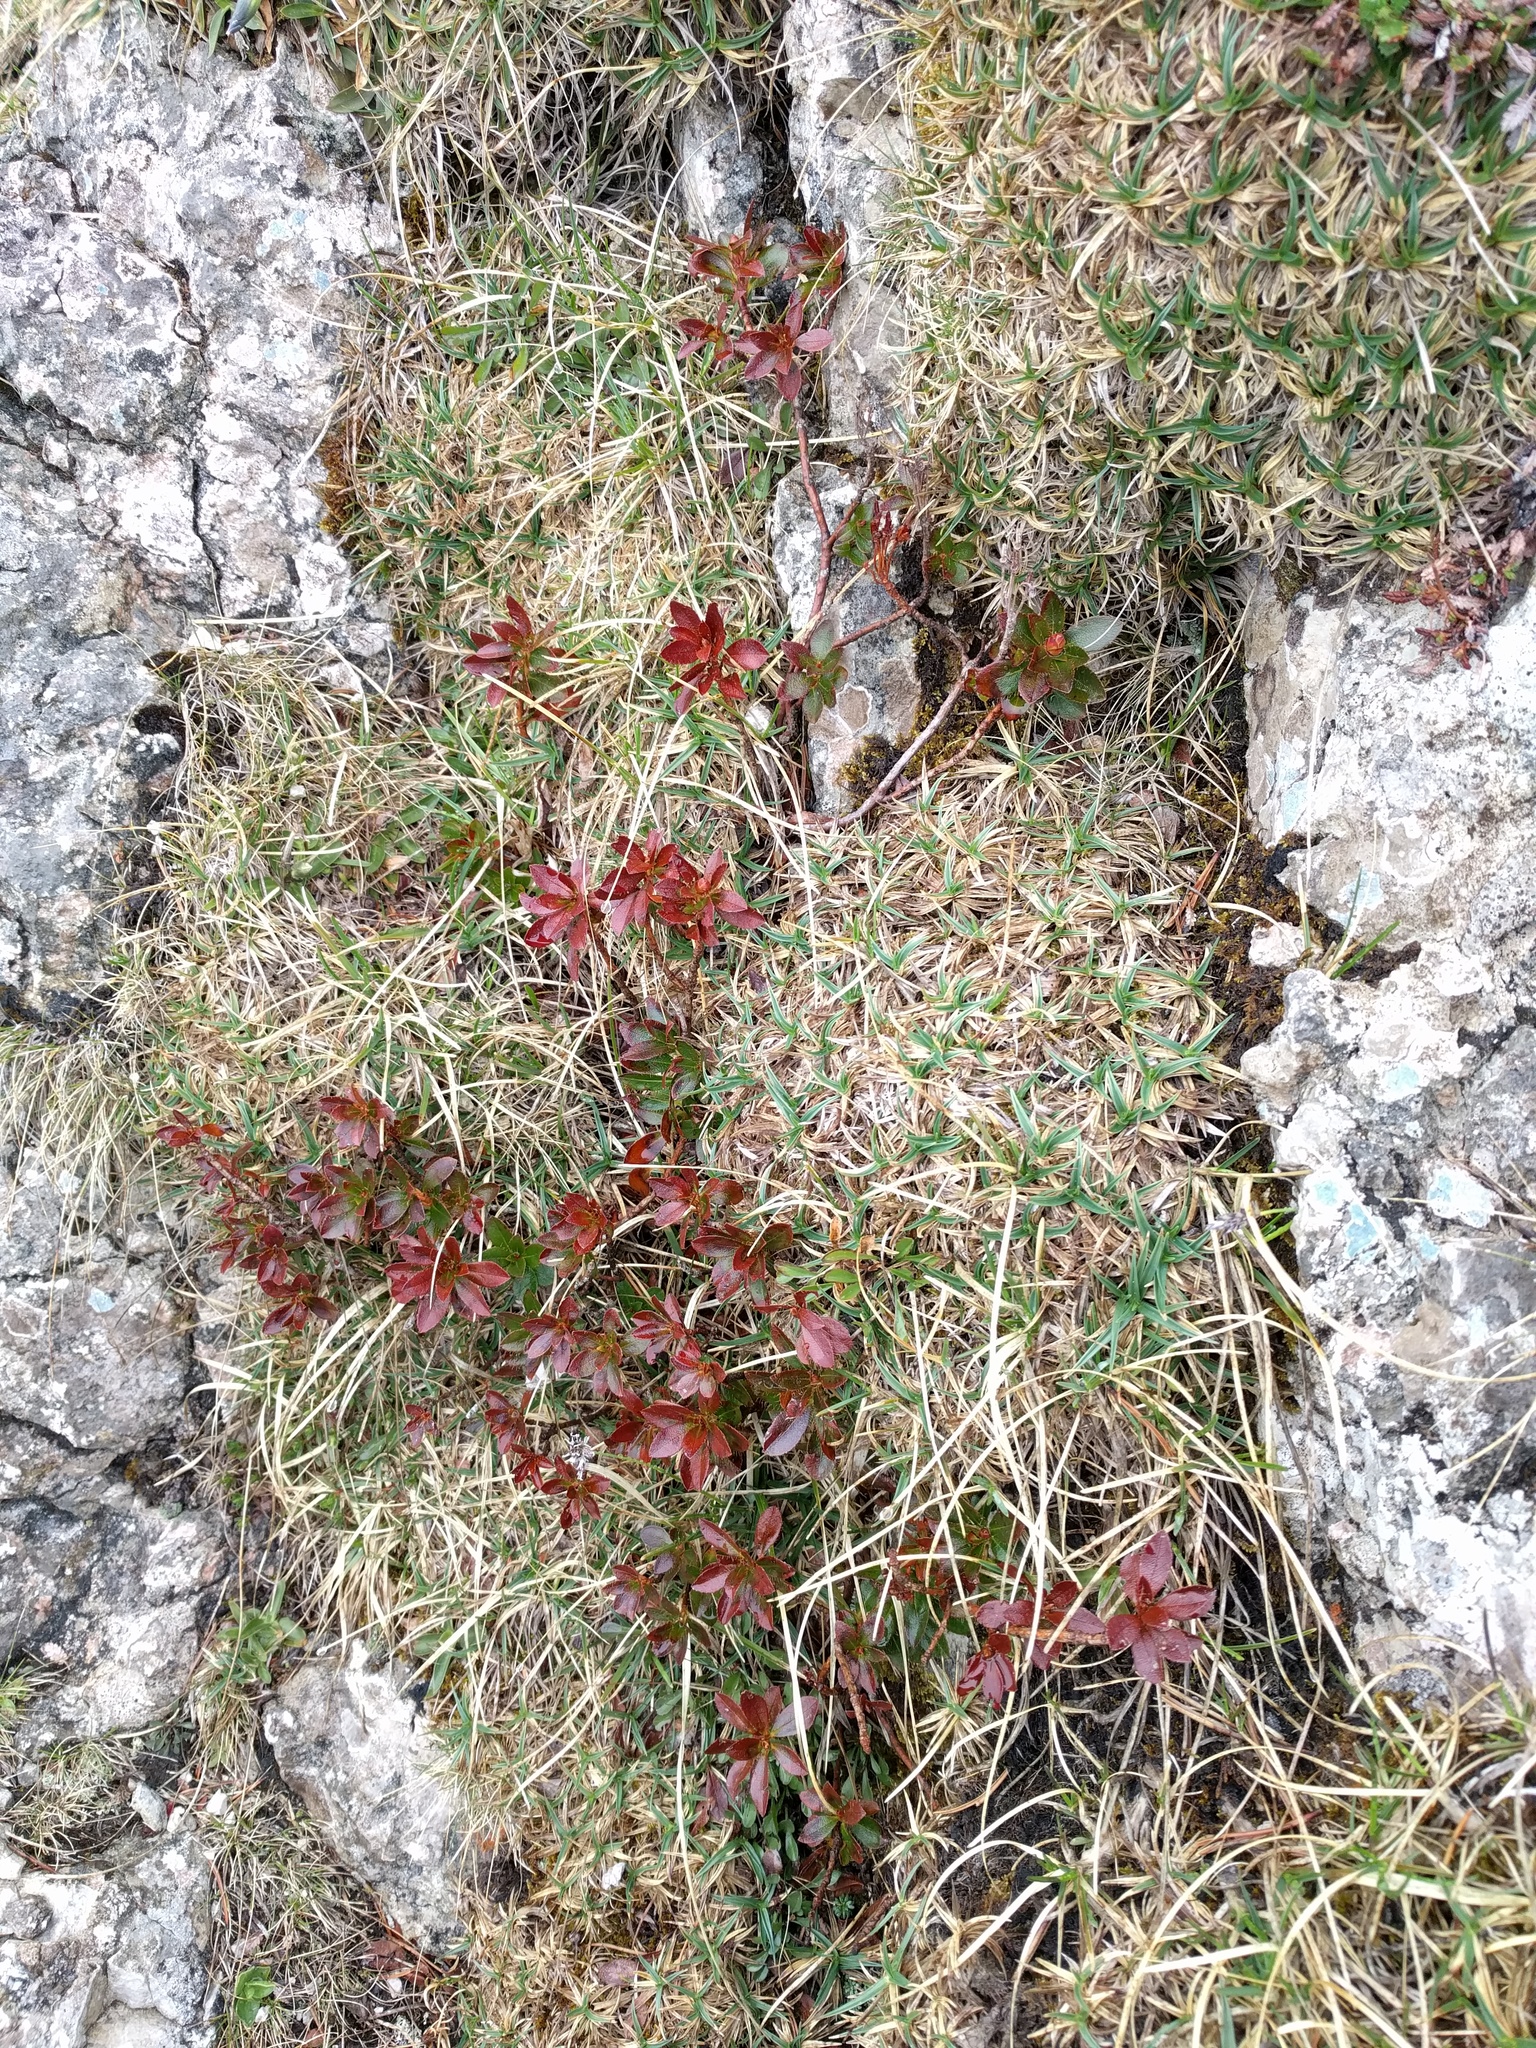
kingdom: Plantae
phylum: Tracheophyta
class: Magnoliopsida
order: Ericales
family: Ericaceae
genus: Rhododendron
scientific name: Rhododendron hirsutum
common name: Hairy alpenrose
